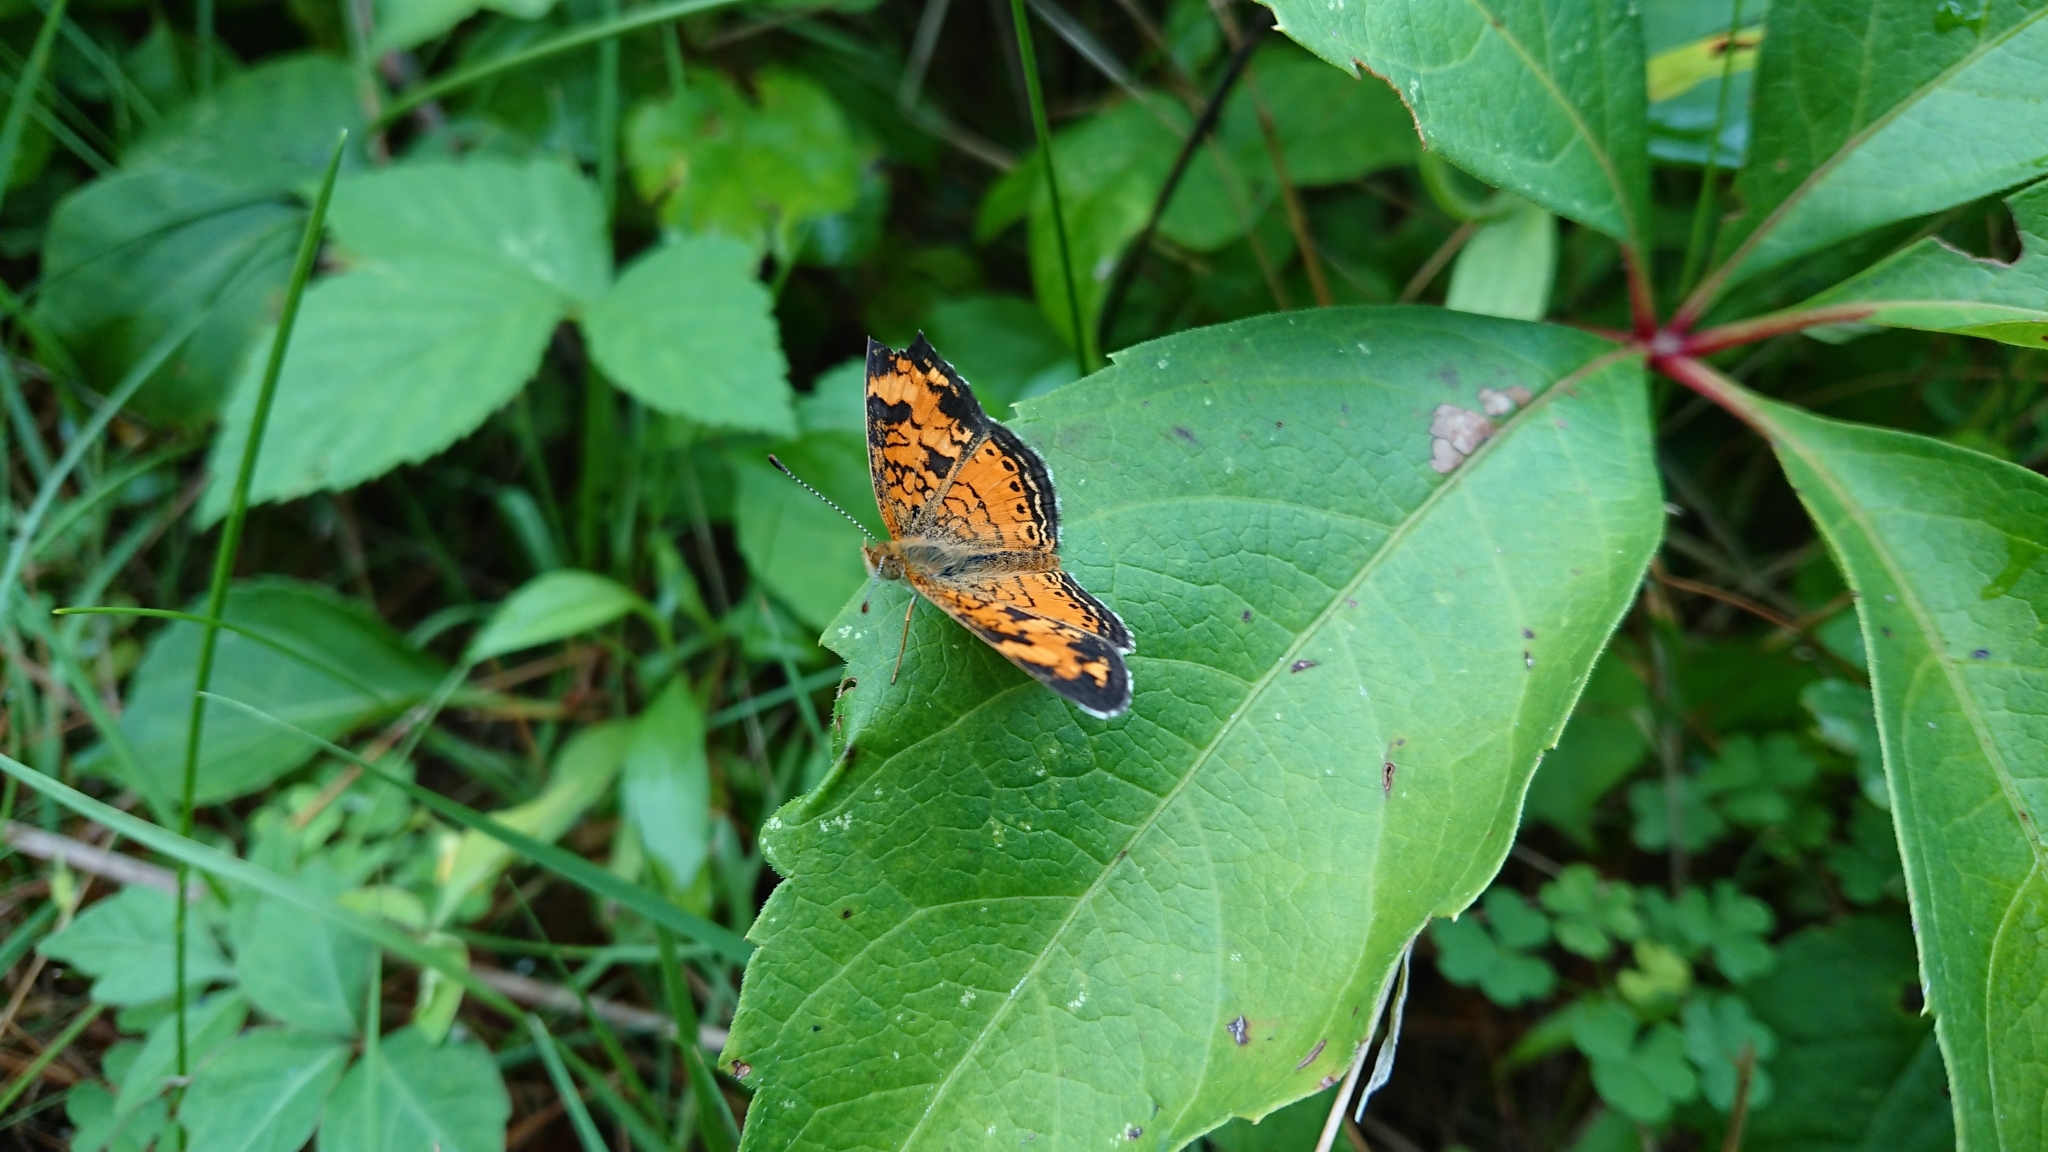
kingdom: Animalia
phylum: Arthropoda
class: Insecta
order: Lepidoptera
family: Nymphalidae
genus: Phyciodes
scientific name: Phyciodes tharos
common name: Pearl crescent
